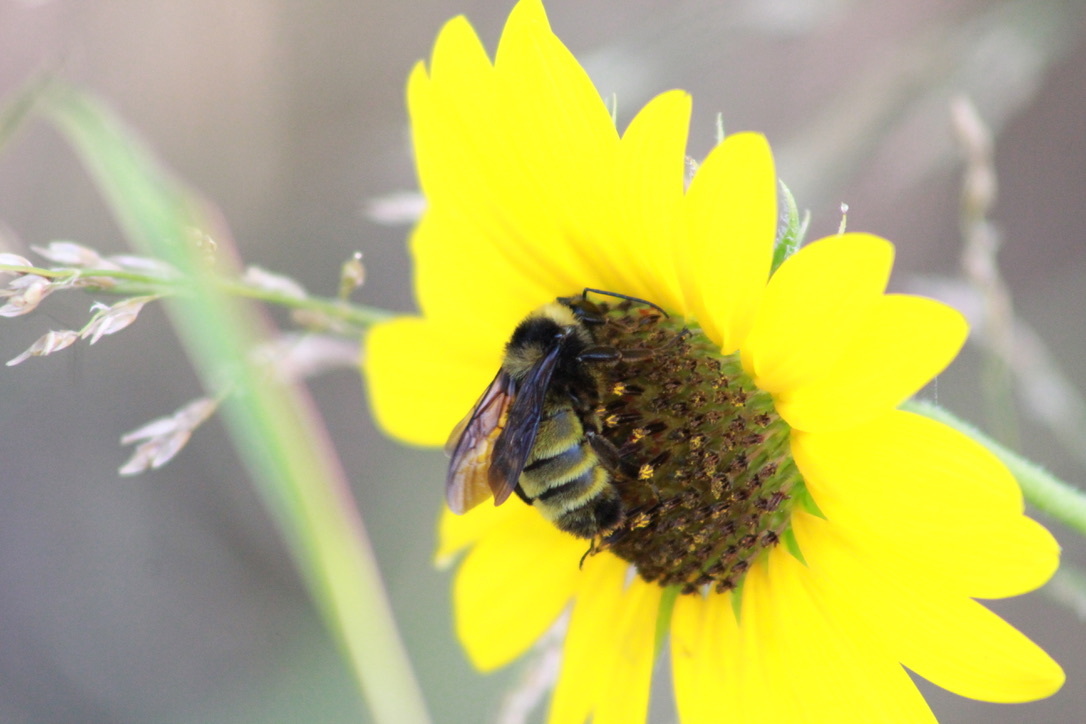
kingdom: Animalia
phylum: Arthropoda
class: Insecta
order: Hymenoptera
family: Apidae
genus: Bombus
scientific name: Bombus pensylvanicus
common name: Bumble bee
